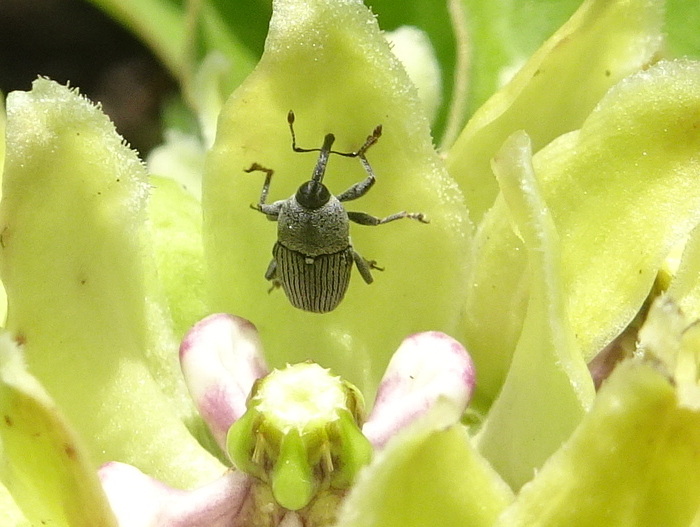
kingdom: Animalia
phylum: Arthropoda
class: Insecta
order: Coleoptera
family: Curculionidae
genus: Odontocorynus
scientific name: Odontocorynus salebrosus
